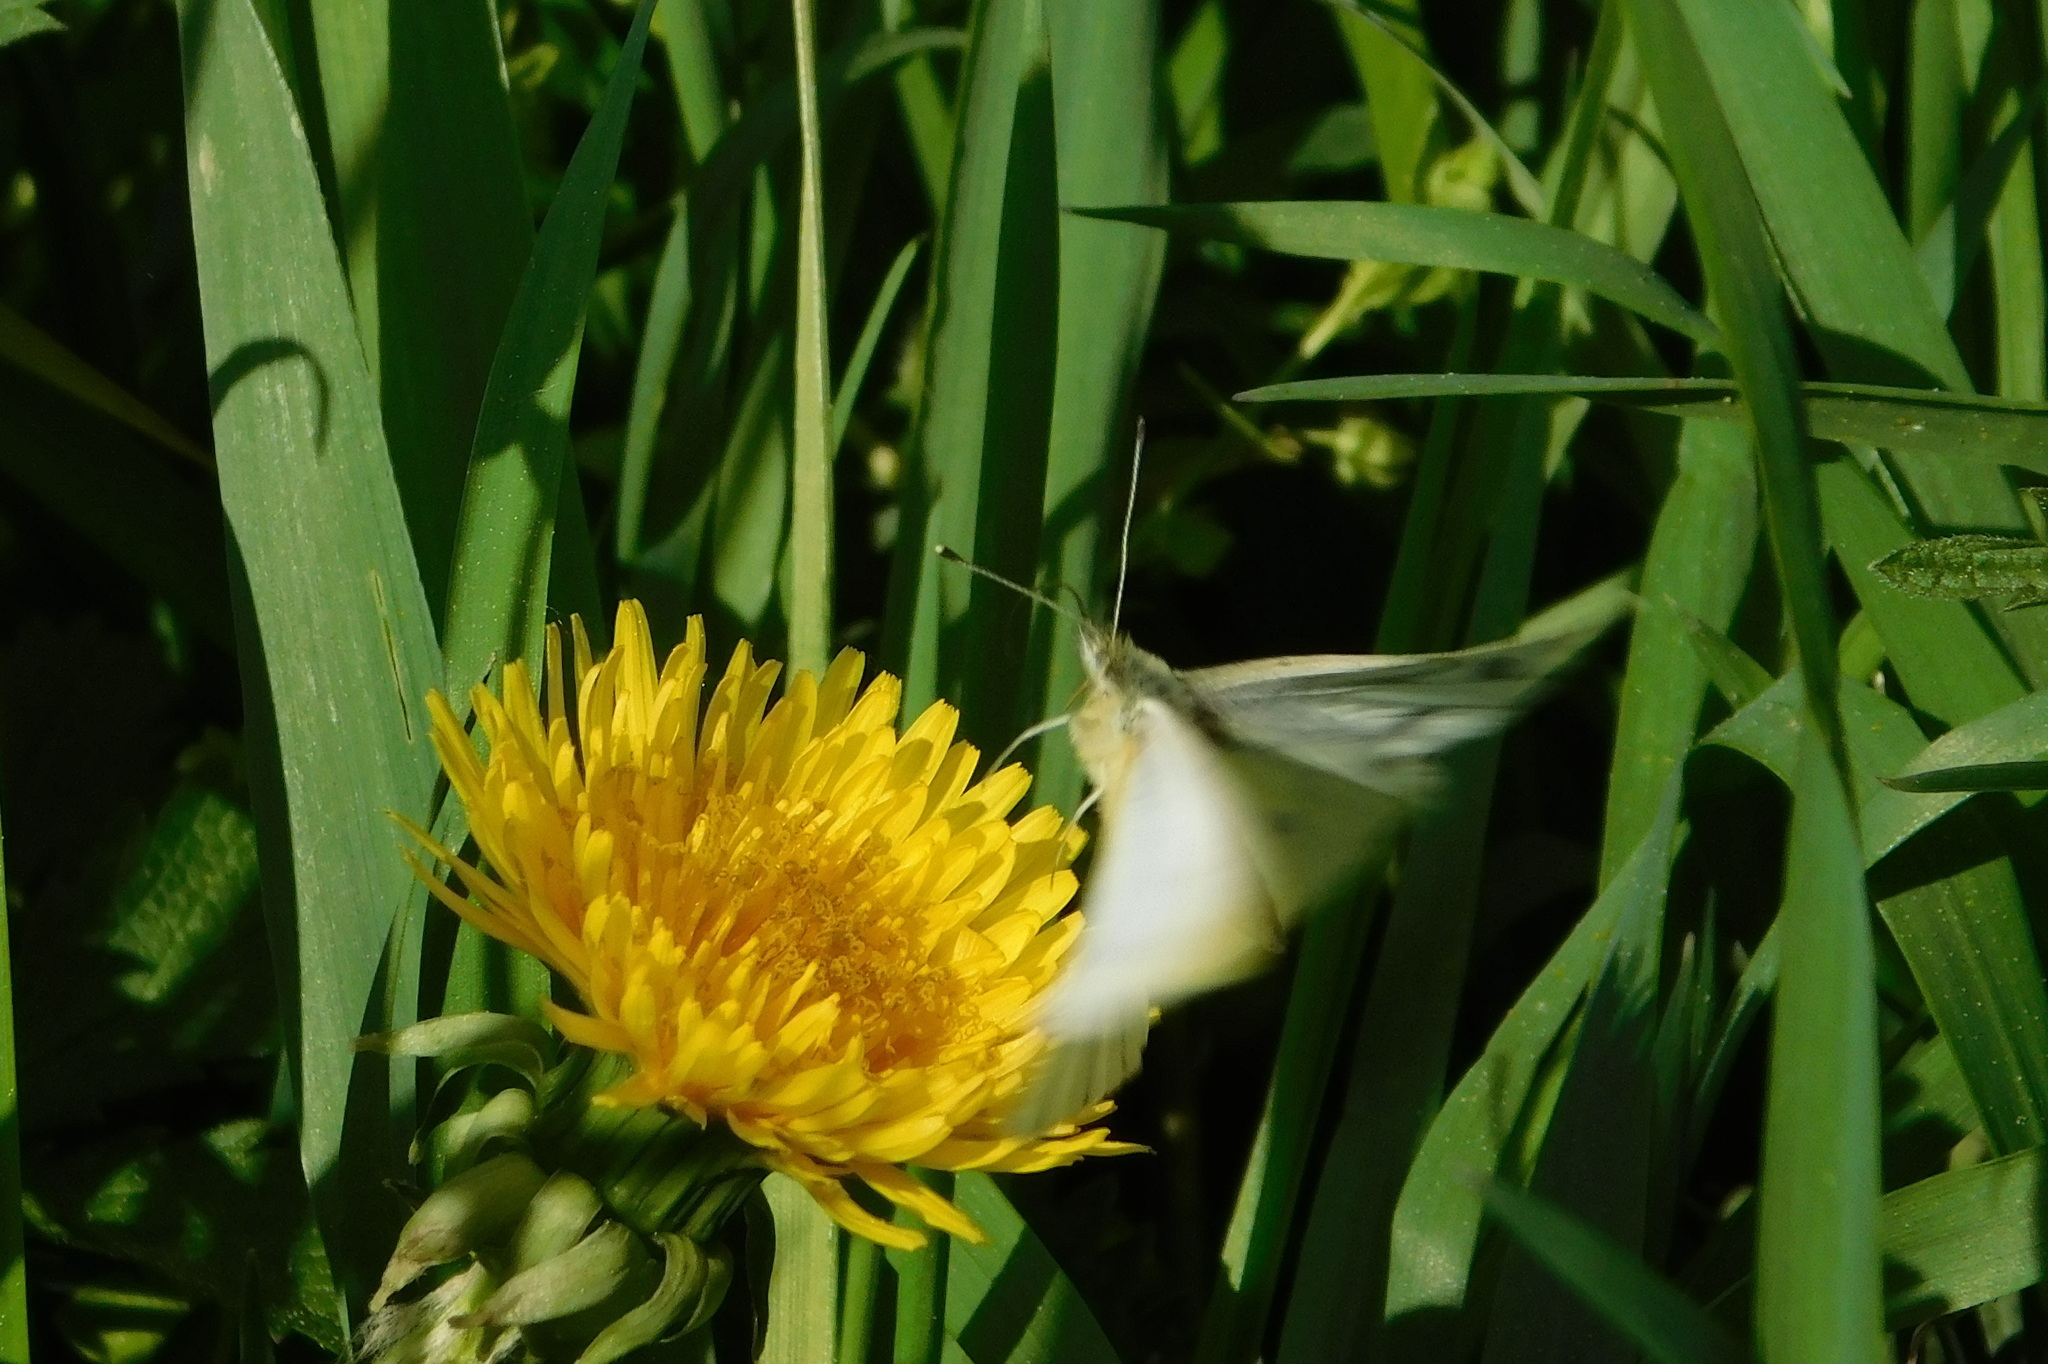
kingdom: Animalia
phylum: Arthropoda
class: Insecta
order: Lepidoptera
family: Pieridae
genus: Pieris
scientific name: Pieris napi
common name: Green-veined white
